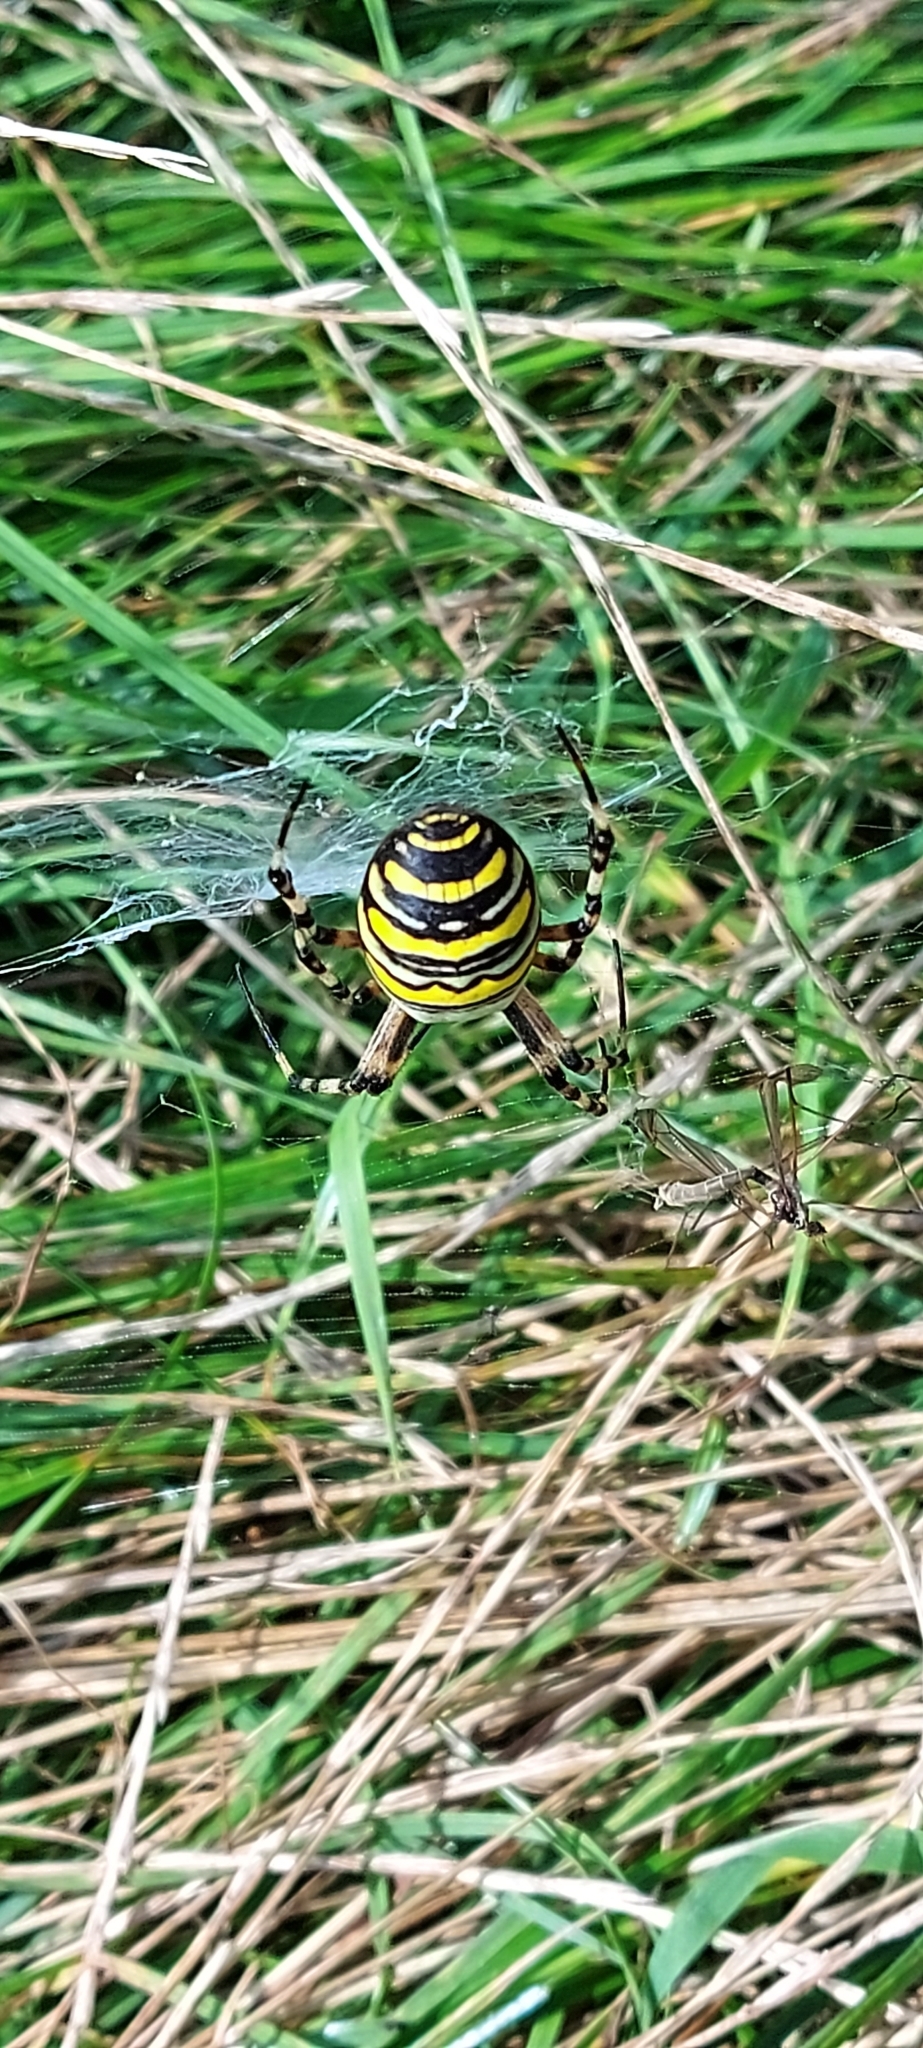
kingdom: Animalia
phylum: Arthropoda
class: Arachnida
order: Araneae
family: Araneidae
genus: Argiope
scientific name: Argiope bruennichi
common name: Wasp spider
